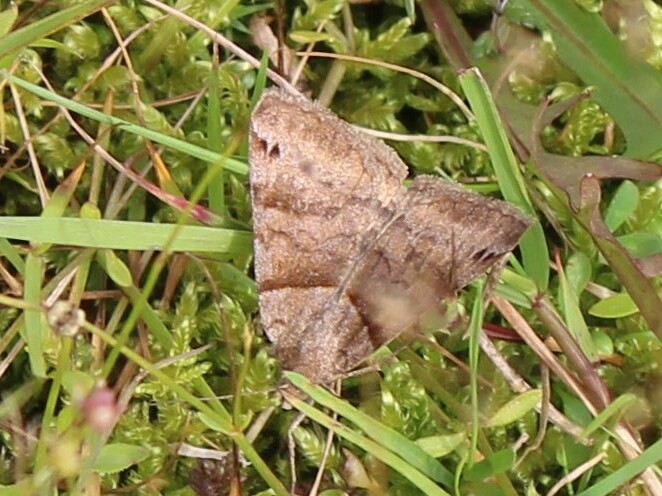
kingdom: Animalia
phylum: Arthropoda
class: Insecta
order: Lepidoptera
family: Erebidae
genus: Caenurgina
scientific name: Caenurgina crassiuscula
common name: Double-barred
